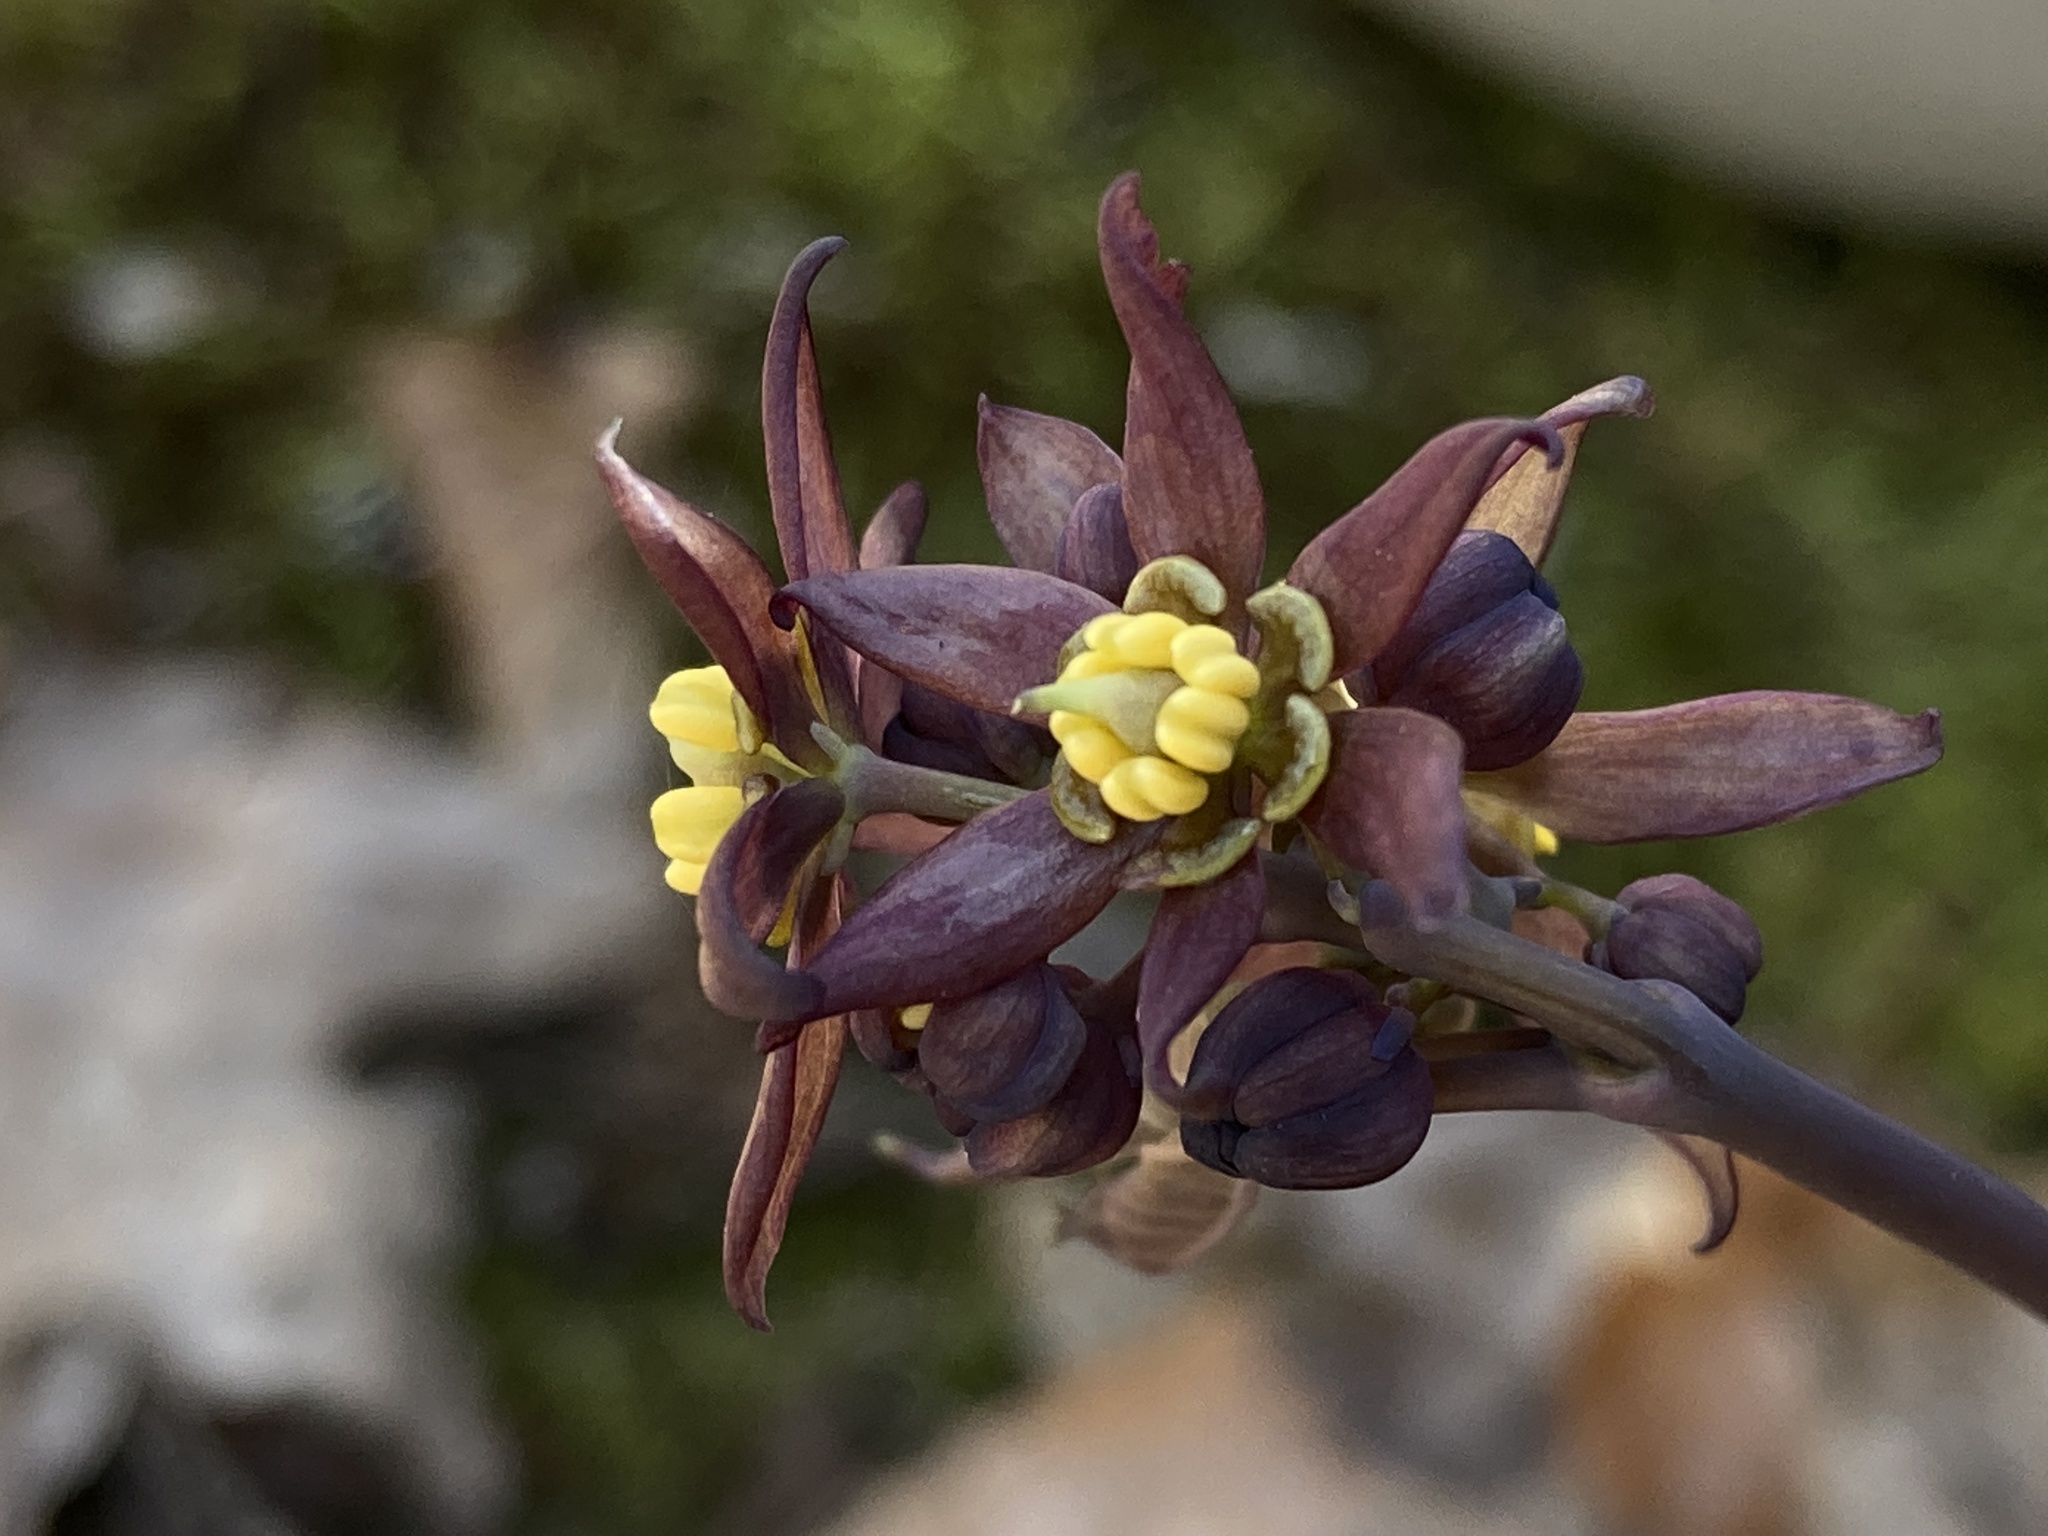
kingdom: Plantae
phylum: Tracheophyta
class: Magnoliopsida
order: Ranunculales
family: Berberidaceae
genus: Caulophyllum
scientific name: Caulophyllum giganteum
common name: Blue cohosh
